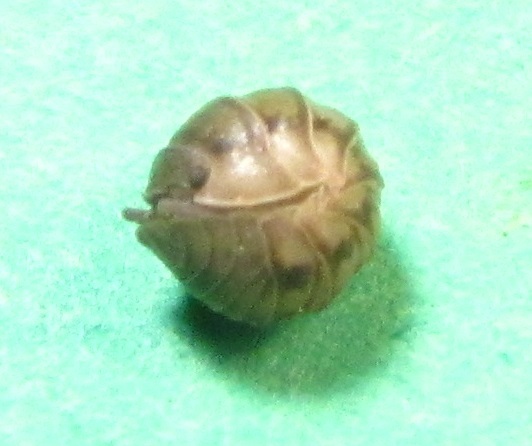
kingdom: Animalia
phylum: Arthropoda
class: Malacostraca
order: Isopoda
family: Armadillidiidae
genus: Armadillidium
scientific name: Armadillidium nasatum
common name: Isopod
